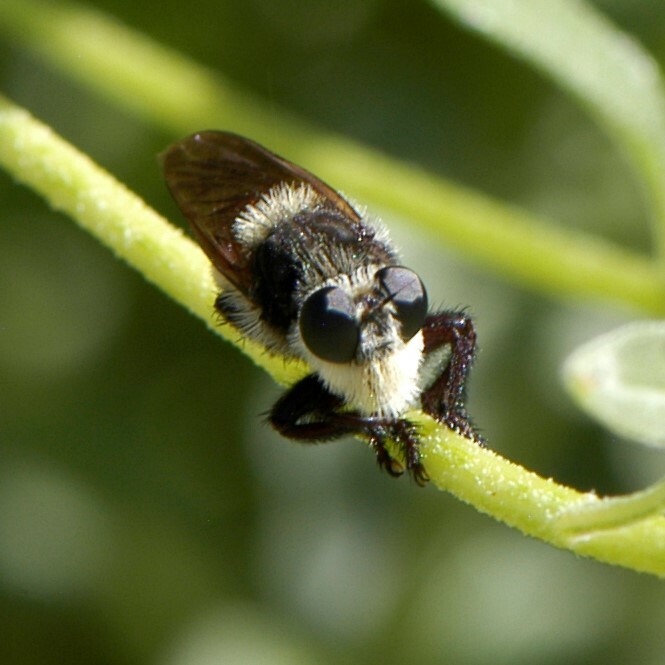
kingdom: Animalia
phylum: Arthropoda
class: Insecta
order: Diptera
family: Asilidae
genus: Mallophora
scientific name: Mallophora fautrix
